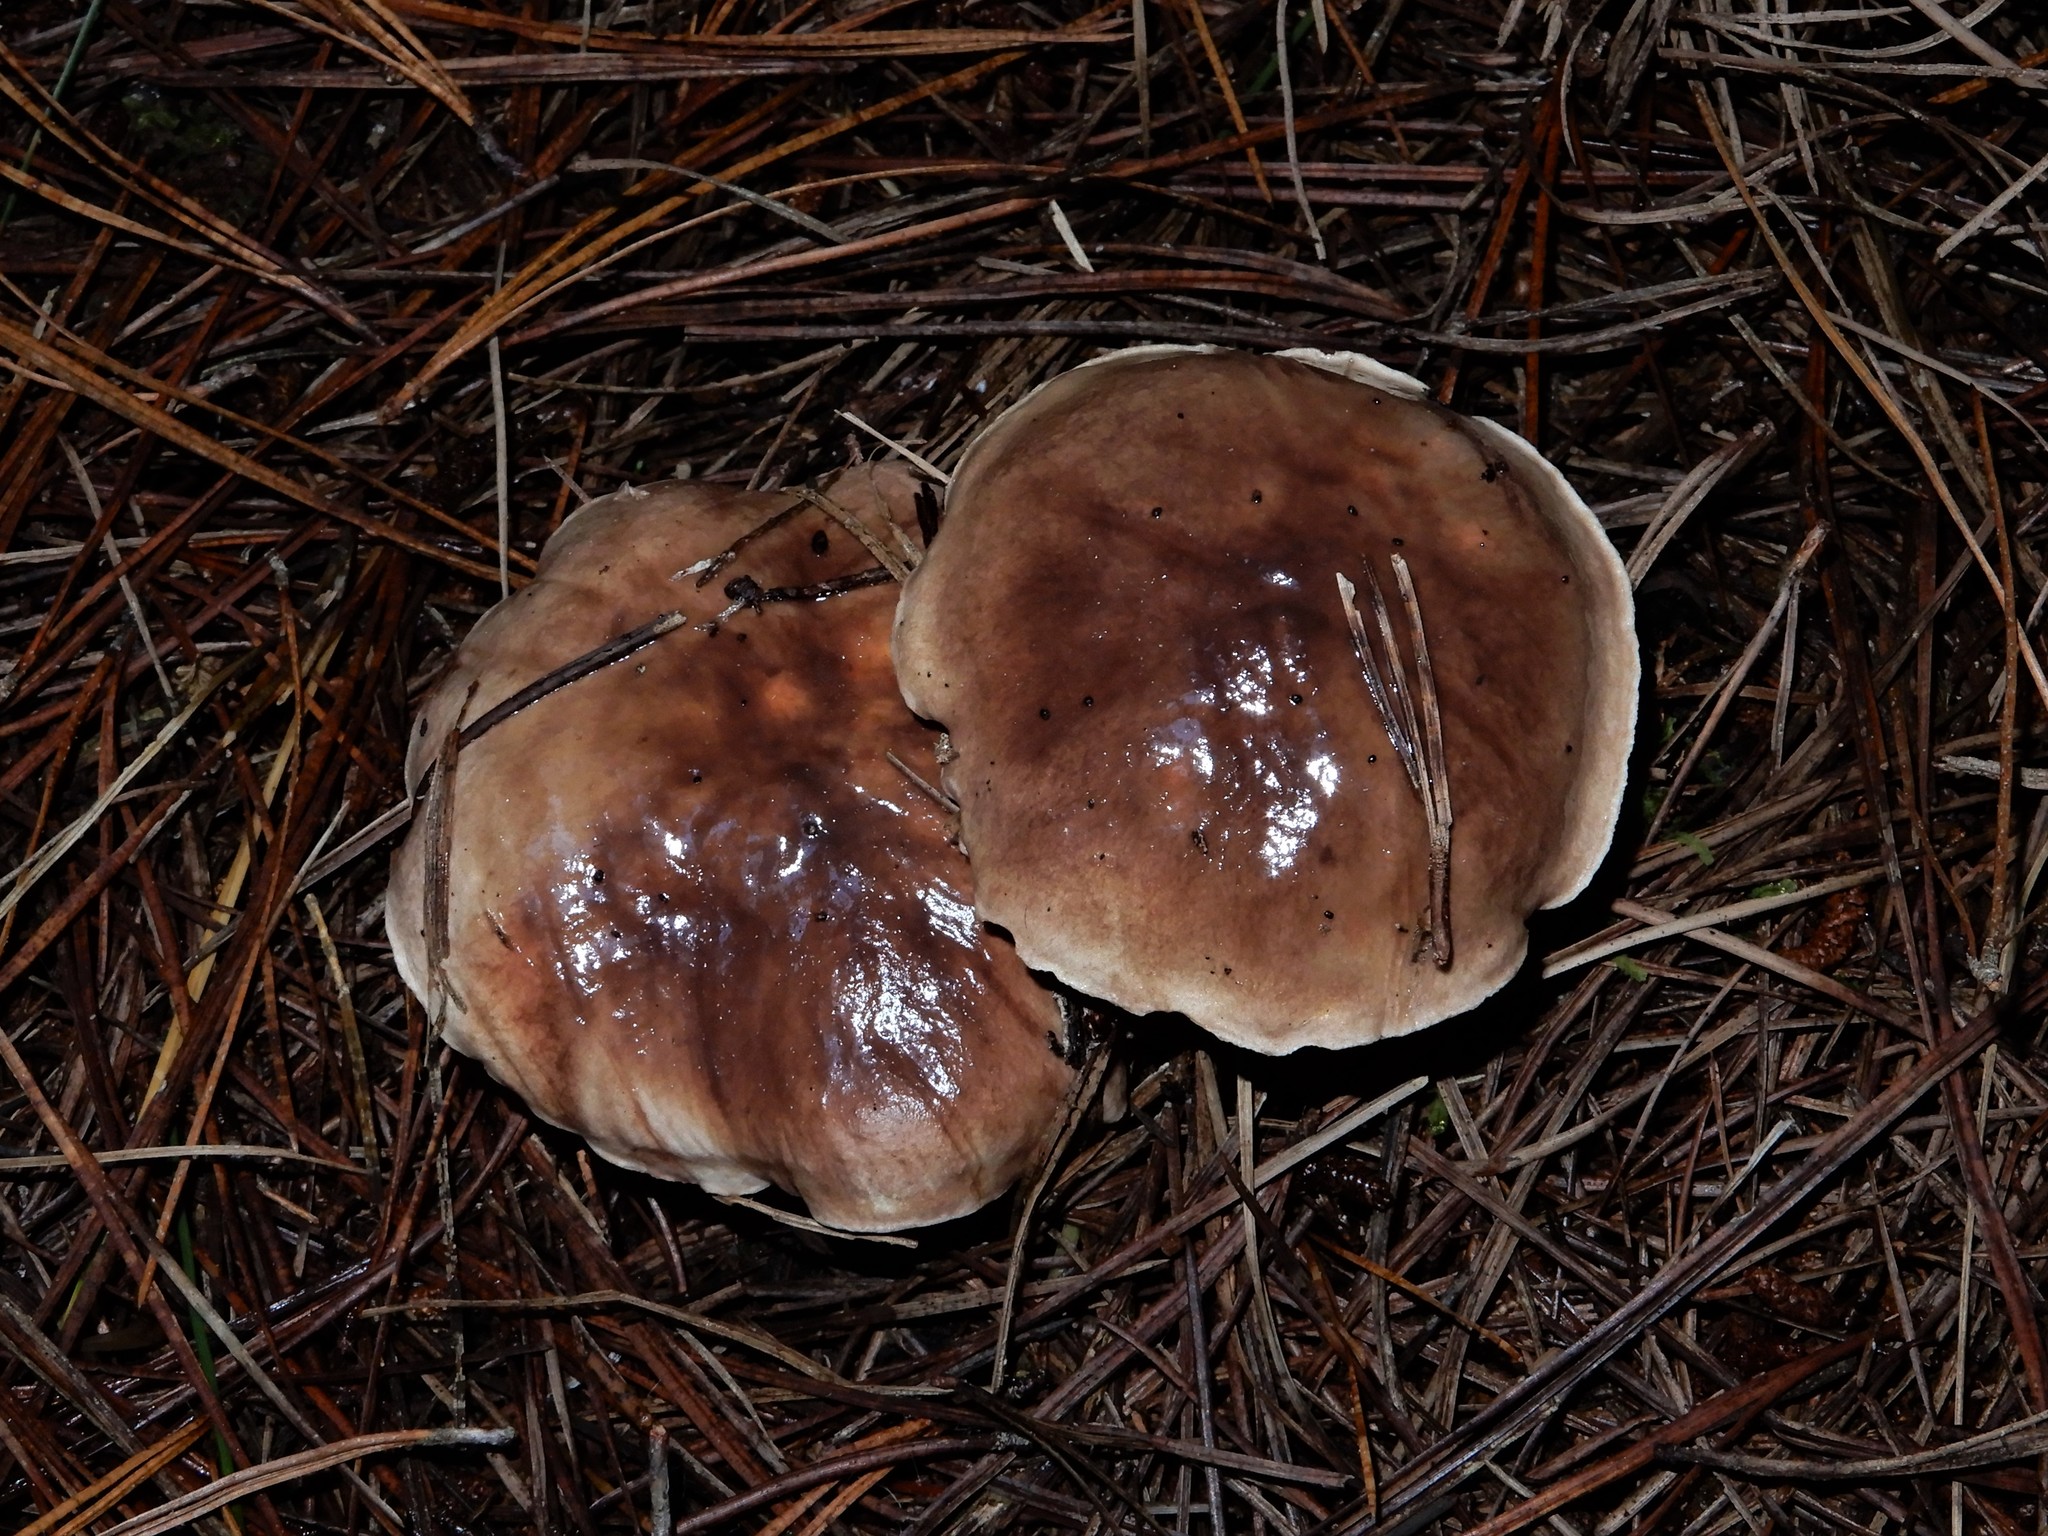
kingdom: Fungi
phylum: Basidiomycota
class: Agaricomycetes
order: Boletales
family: Suillaceae
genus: Suillus
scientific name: Suillus quiescens
